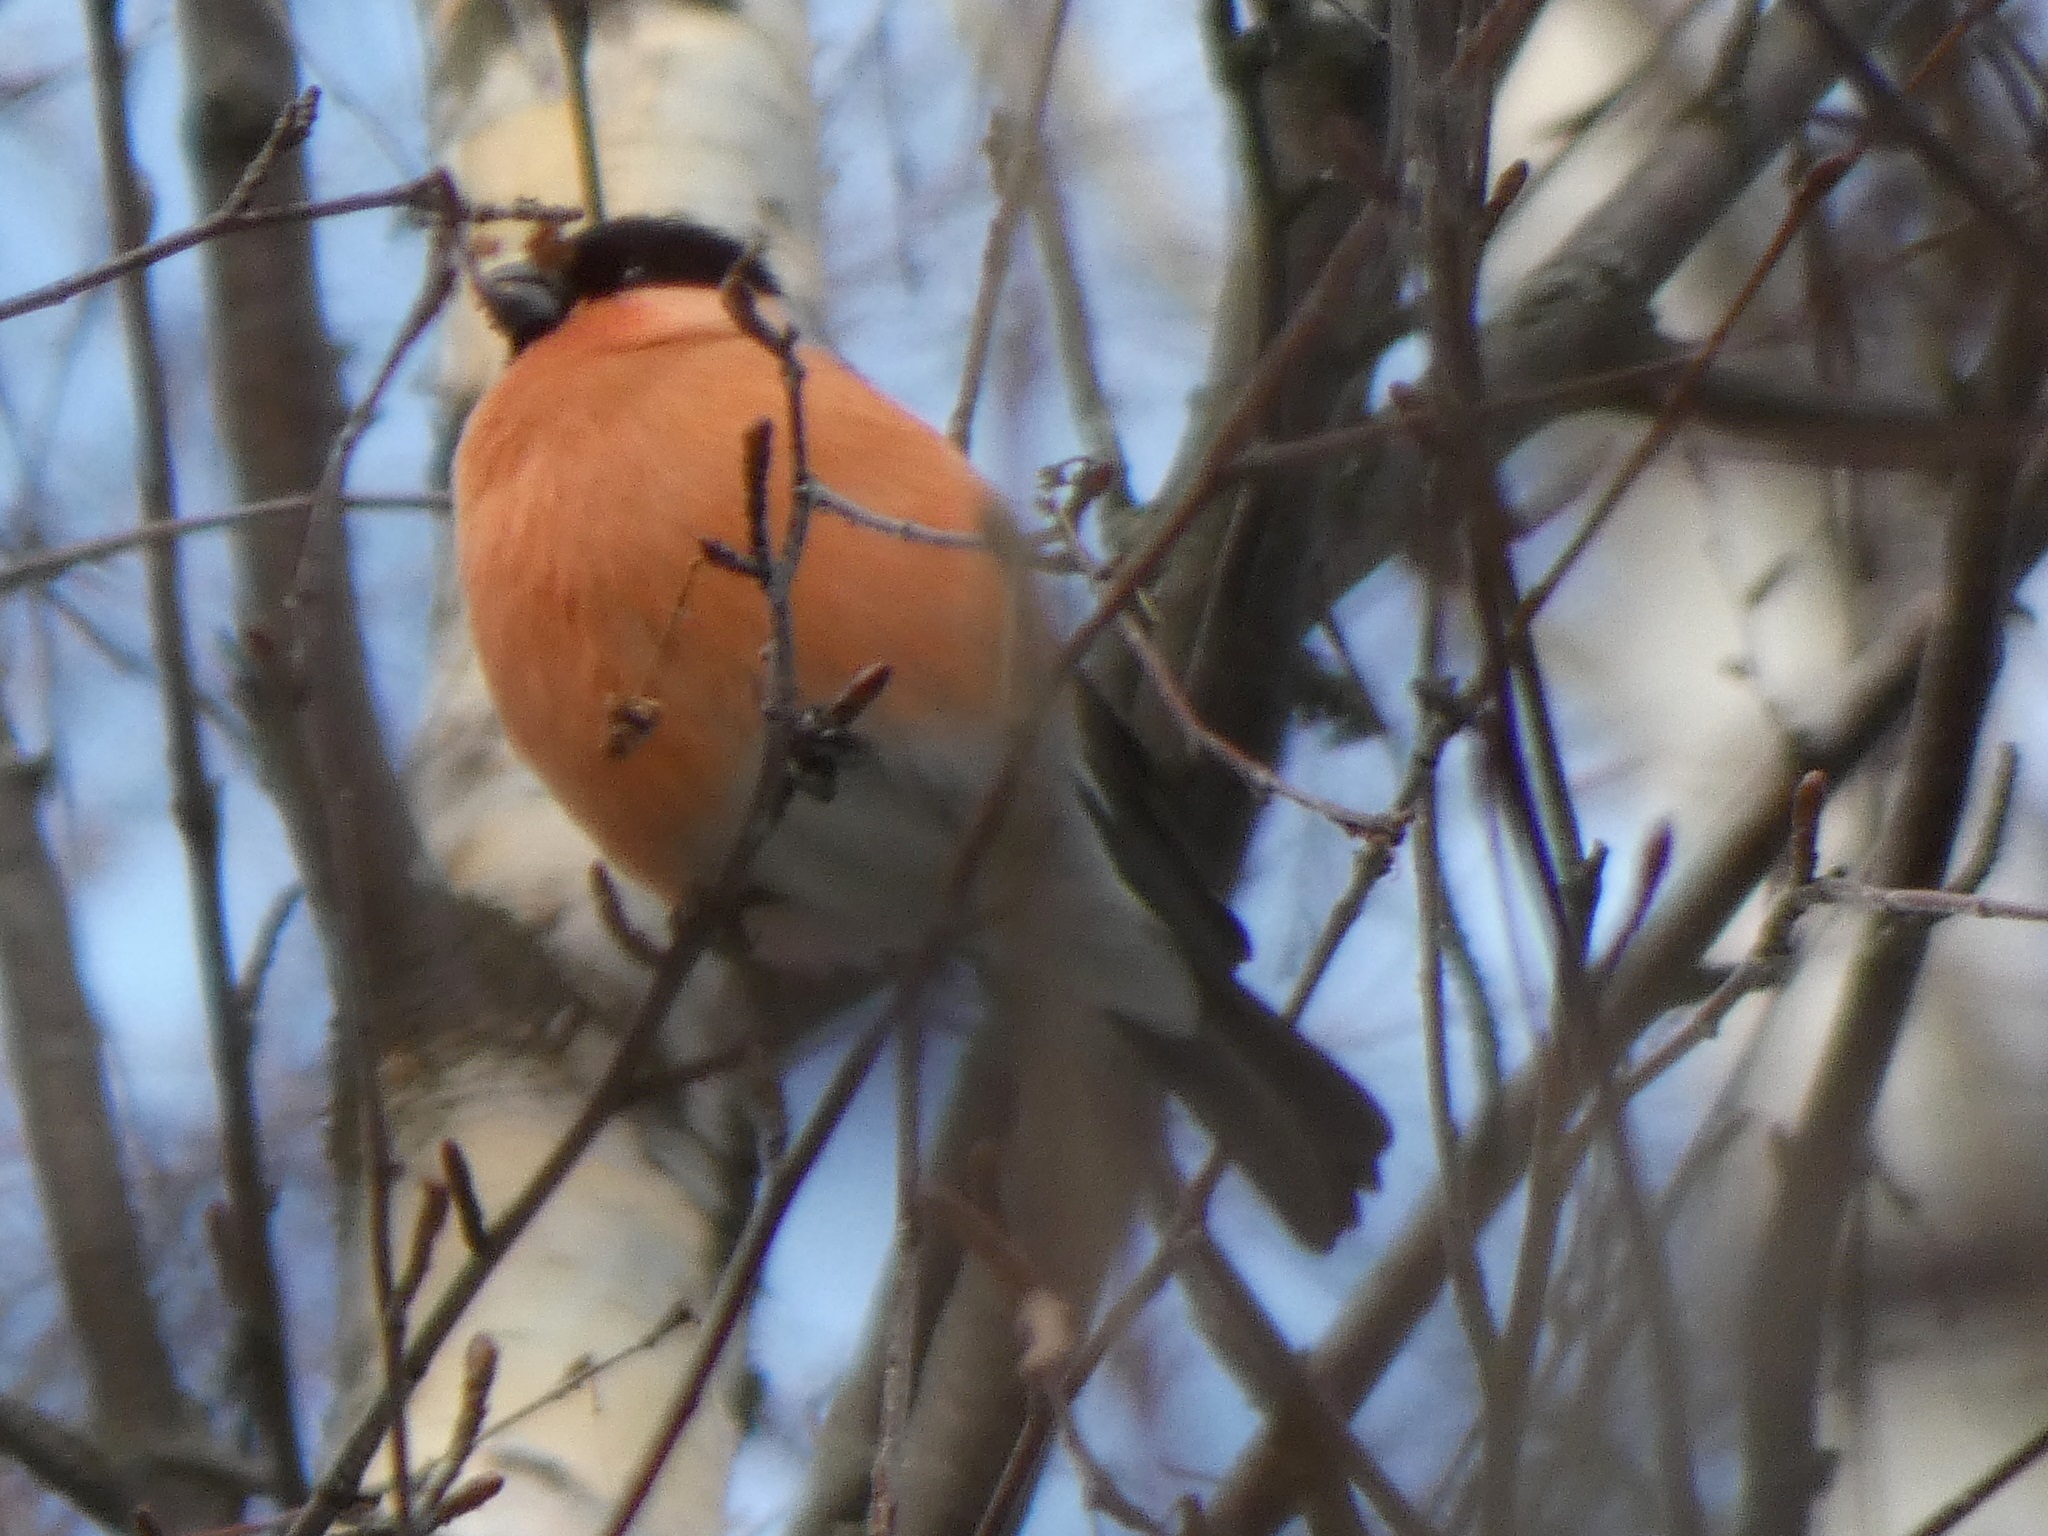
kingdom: Animalia
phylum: Chordata
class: Aves
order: Passeriformes
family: Fringillidae
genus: Pyrrhula
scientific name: Pyrrhula pyrrhula
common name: Eurasian bullfinch
